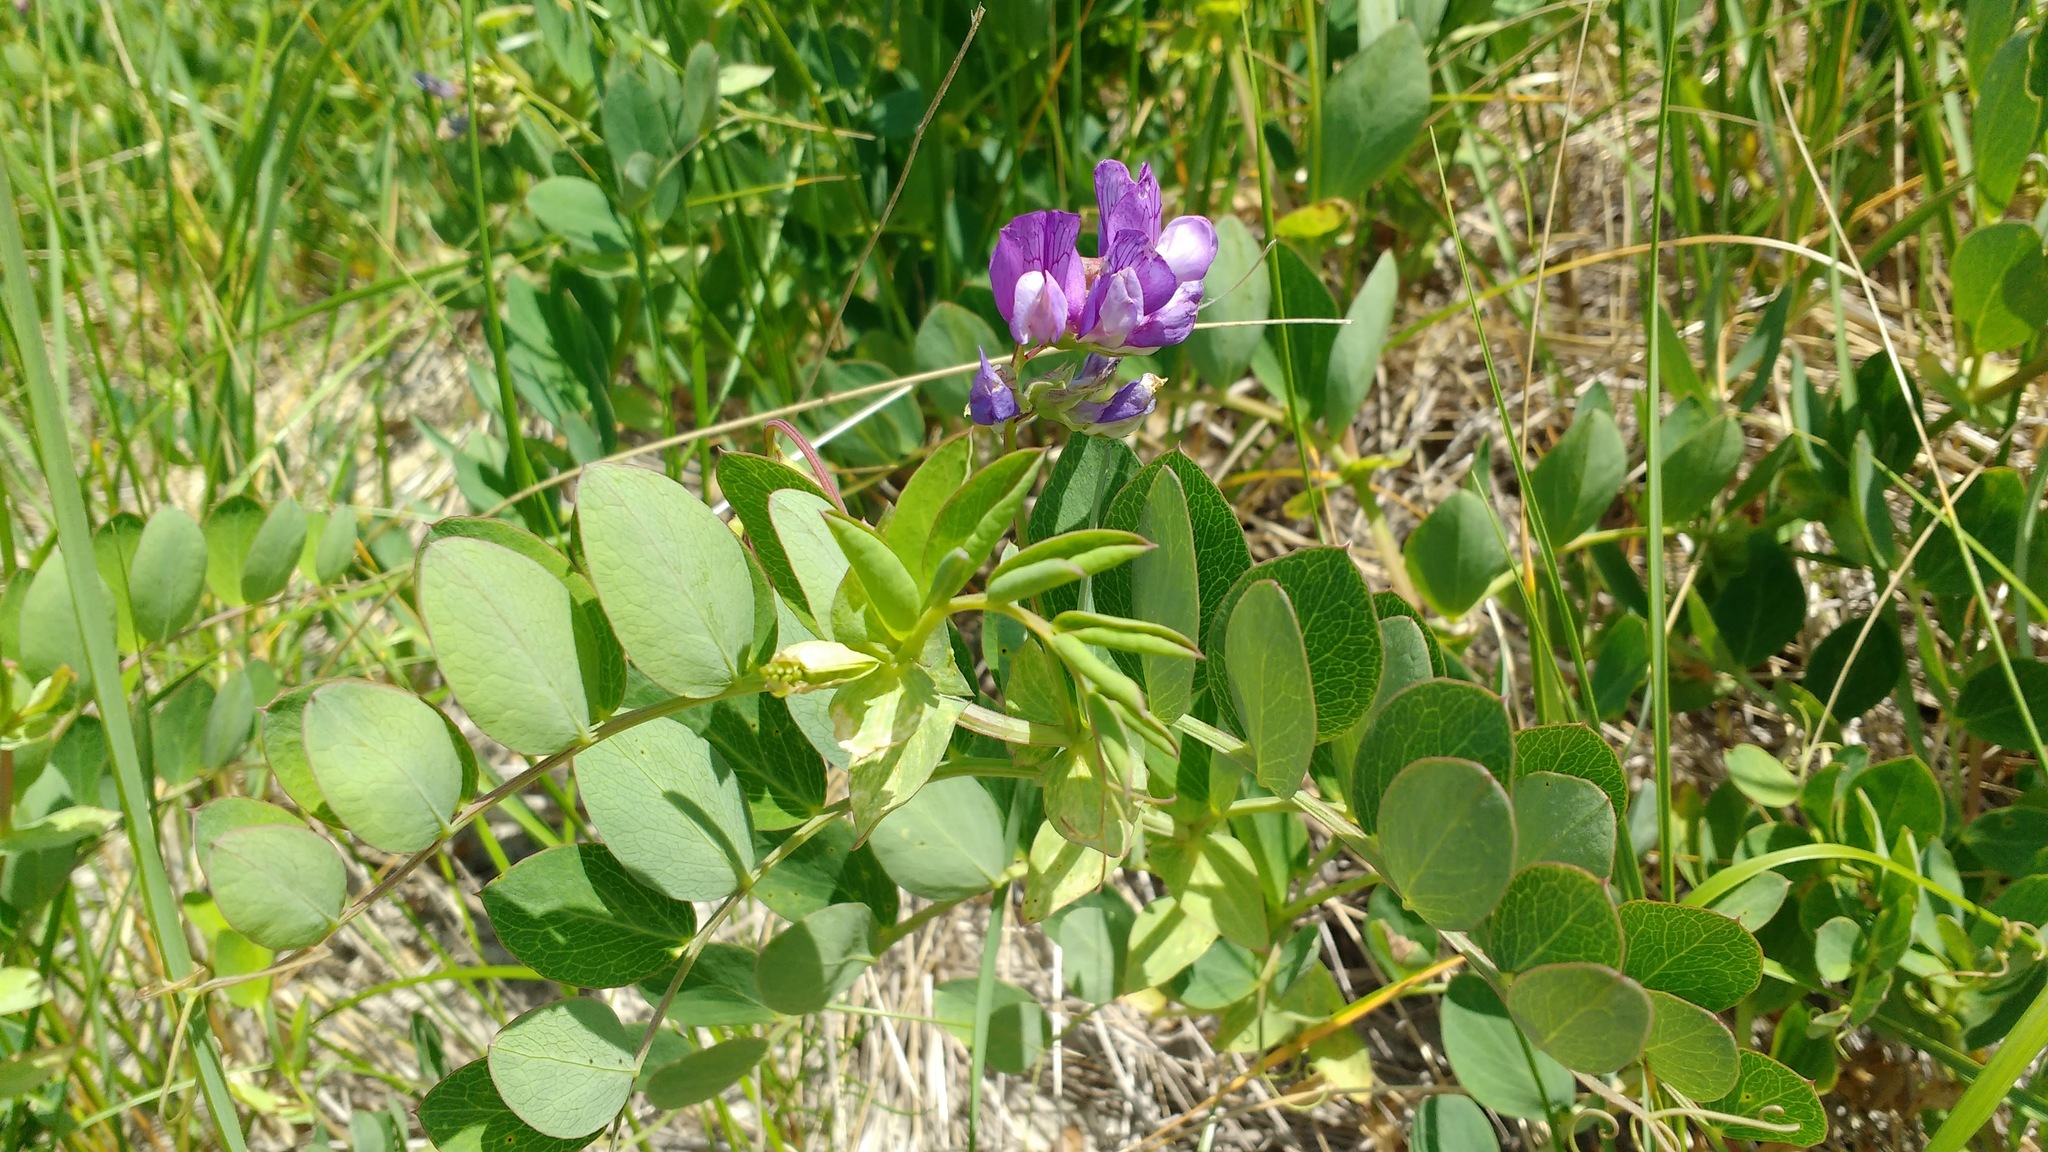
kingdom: Plantae
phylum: Tracheophyta
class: Magnoliopsida
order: Fabales
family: Fabaceae
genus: Lathyrus
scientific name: Lathyrus japonicus
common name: Sea pea
